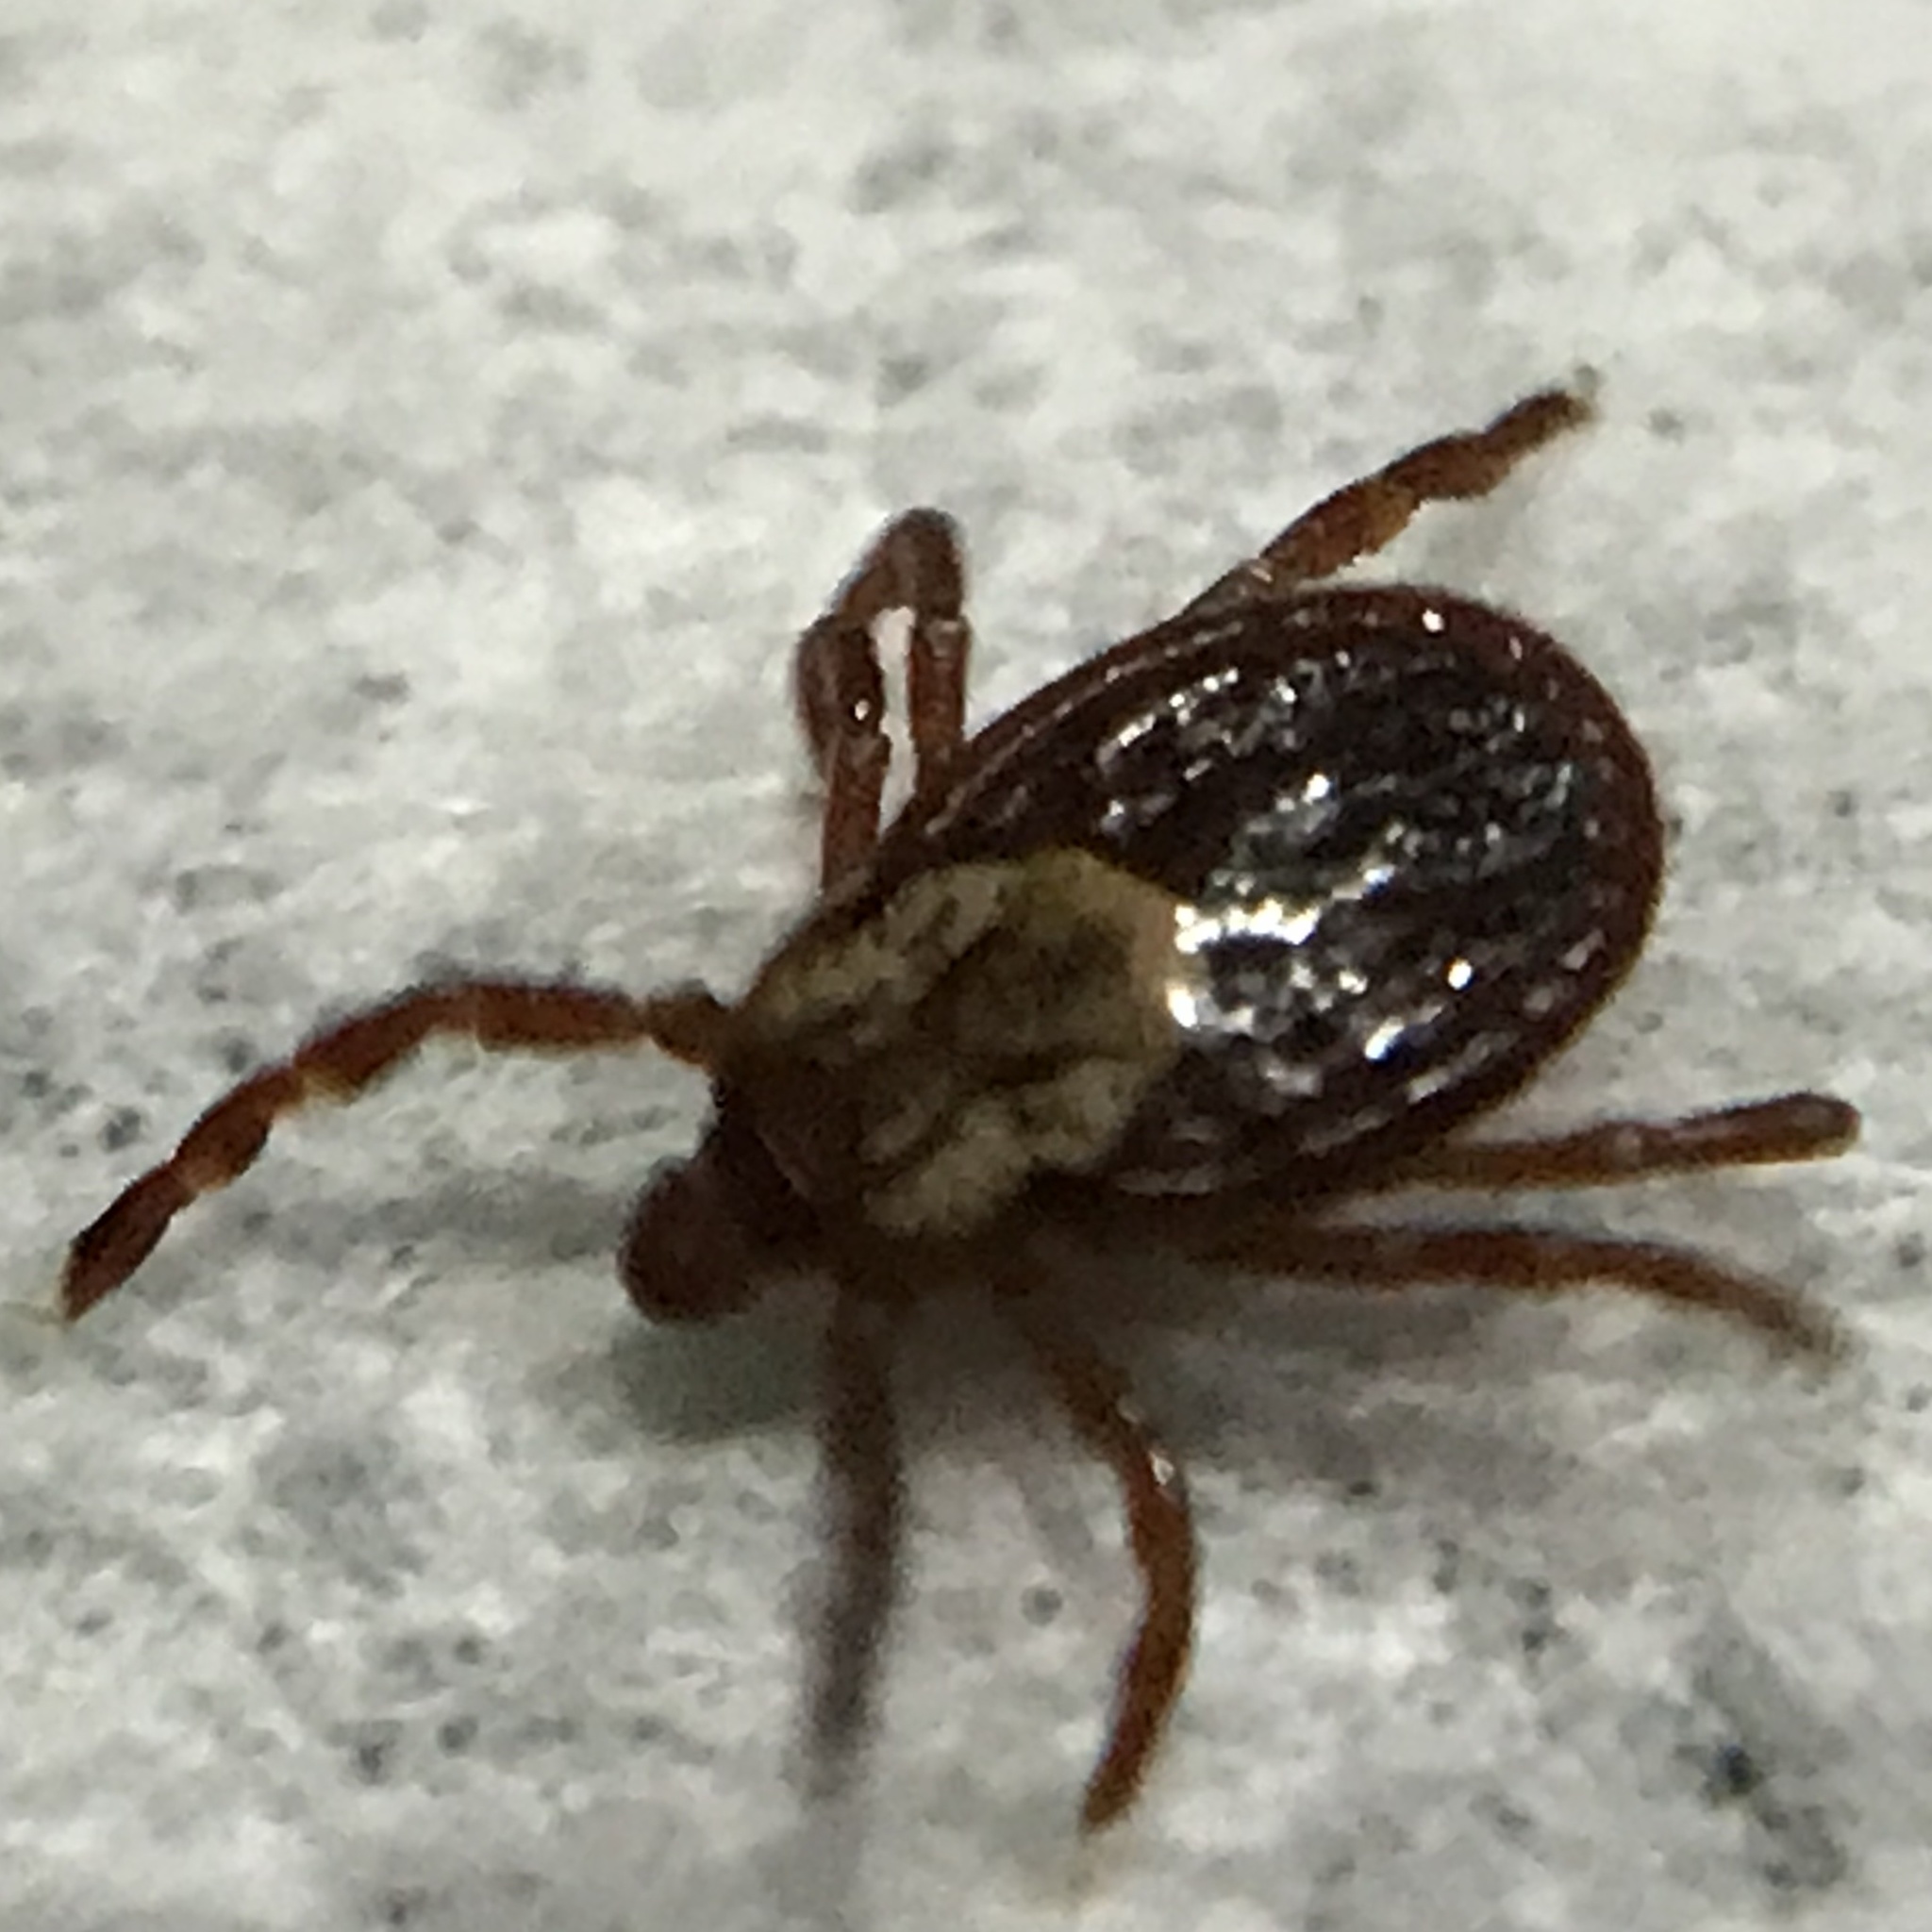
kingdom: Animalia
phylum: Arthropoda
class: Arachnida
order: Ixodida
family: Ixodidae
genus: Dermacentor
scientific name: Dermacentor variabilis
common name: American dog tick
